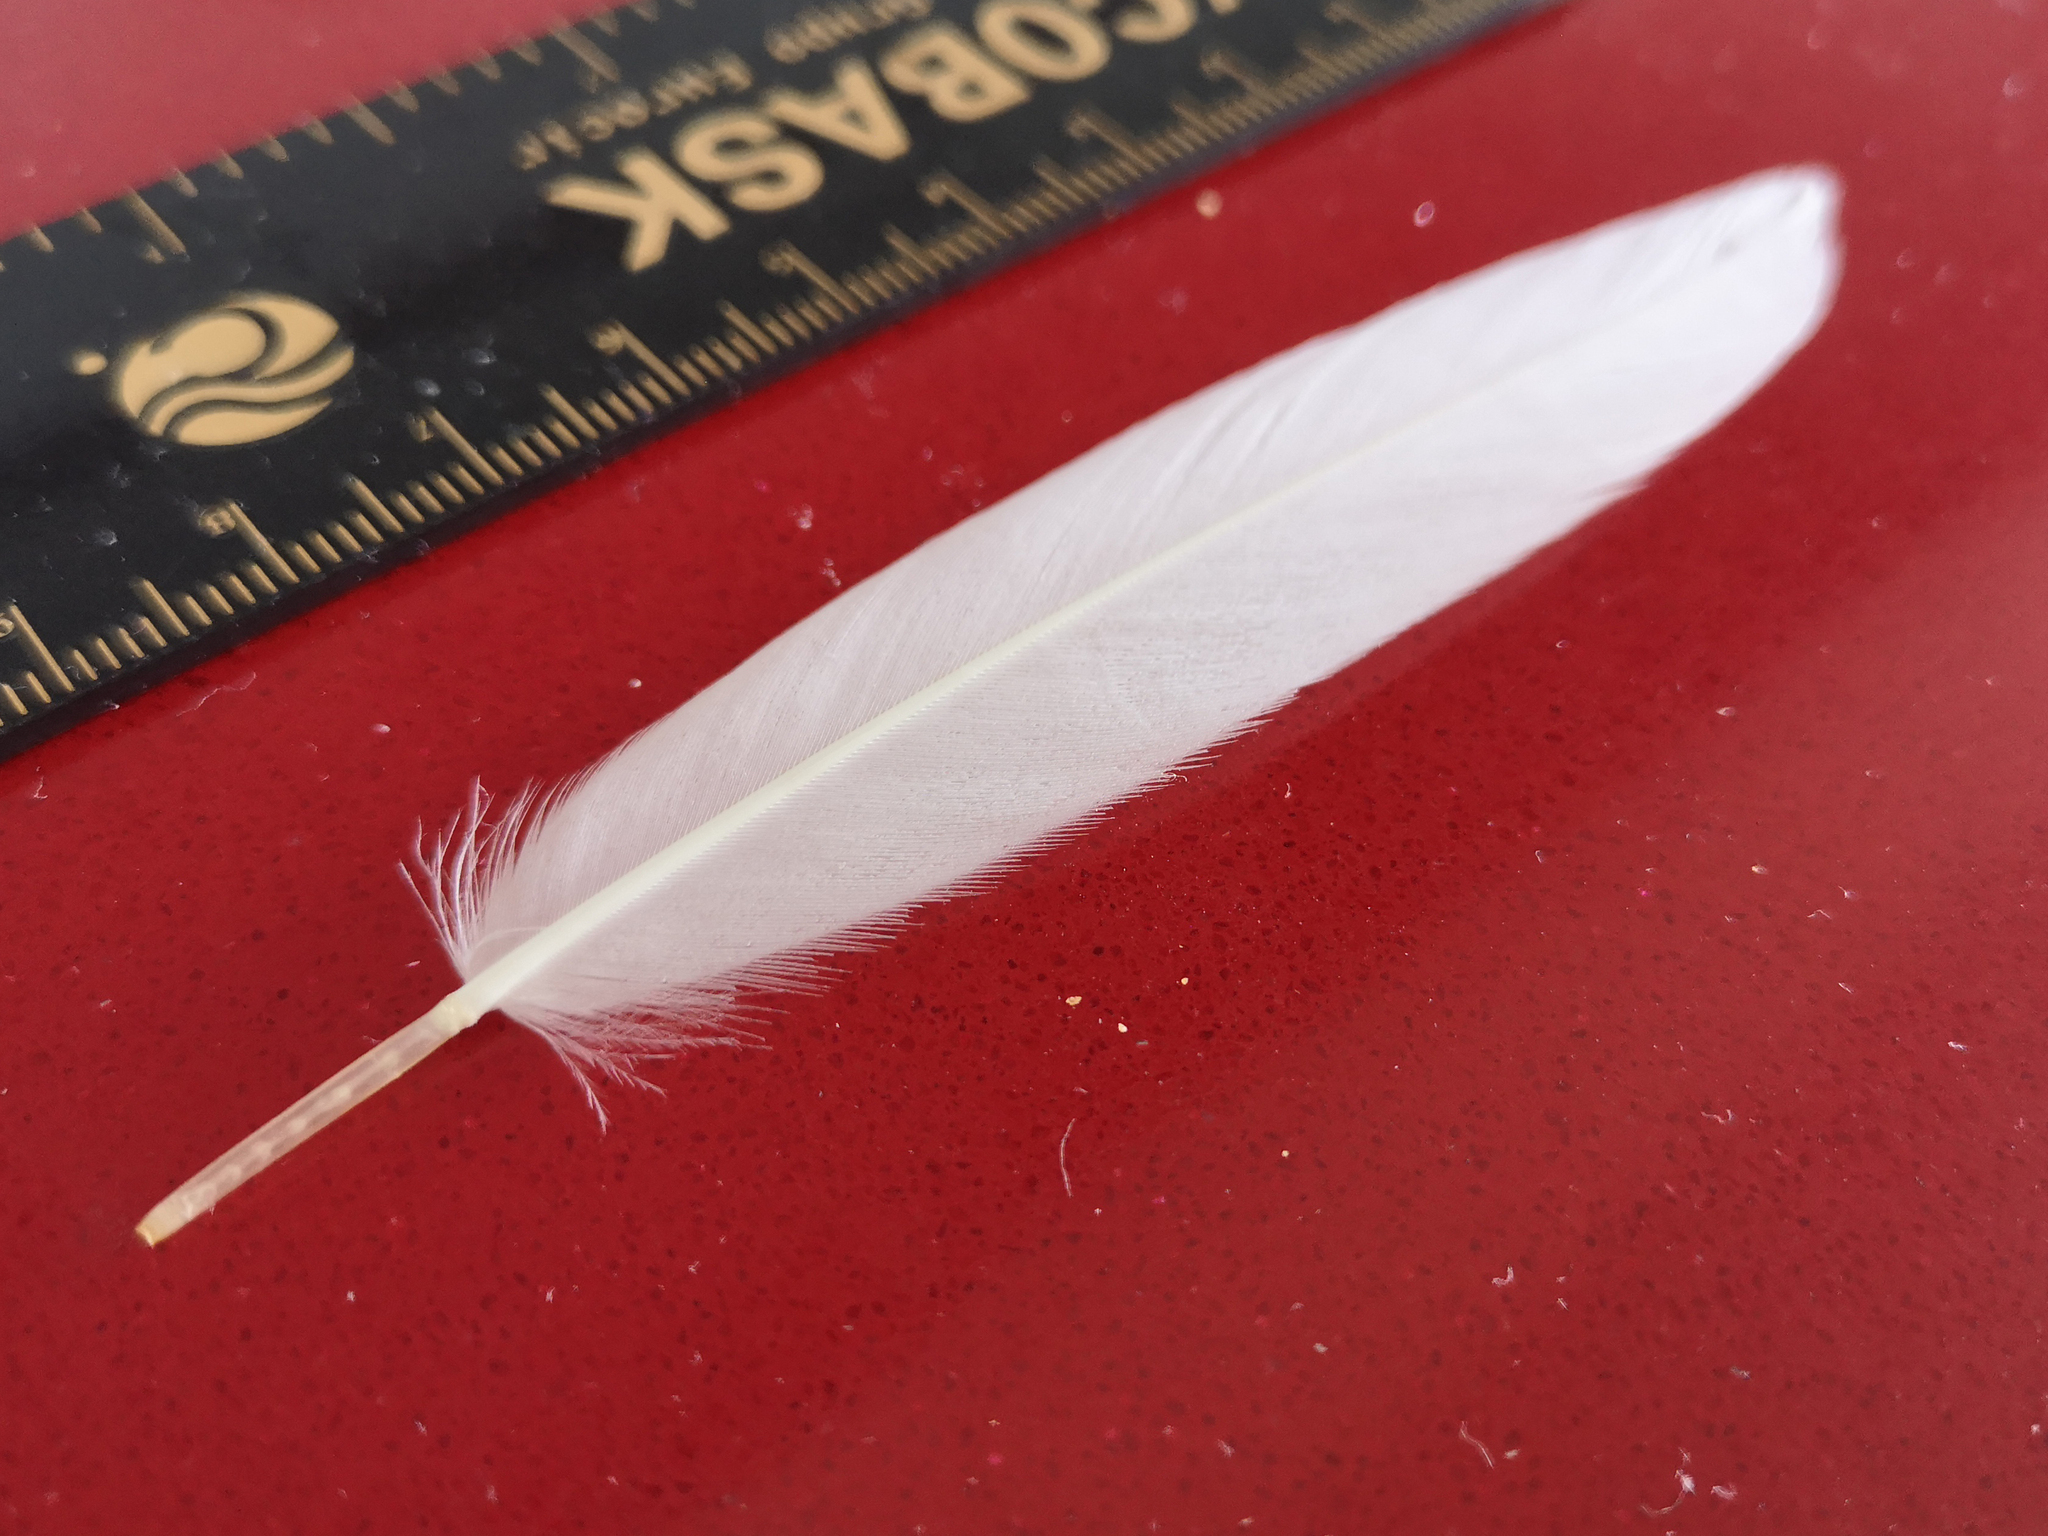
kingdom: Animalia
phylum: Chordata
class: Aves
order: Anseriformes
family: Anatidae
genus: Anas
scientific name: Anas platyrhynchos
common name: Mallard
